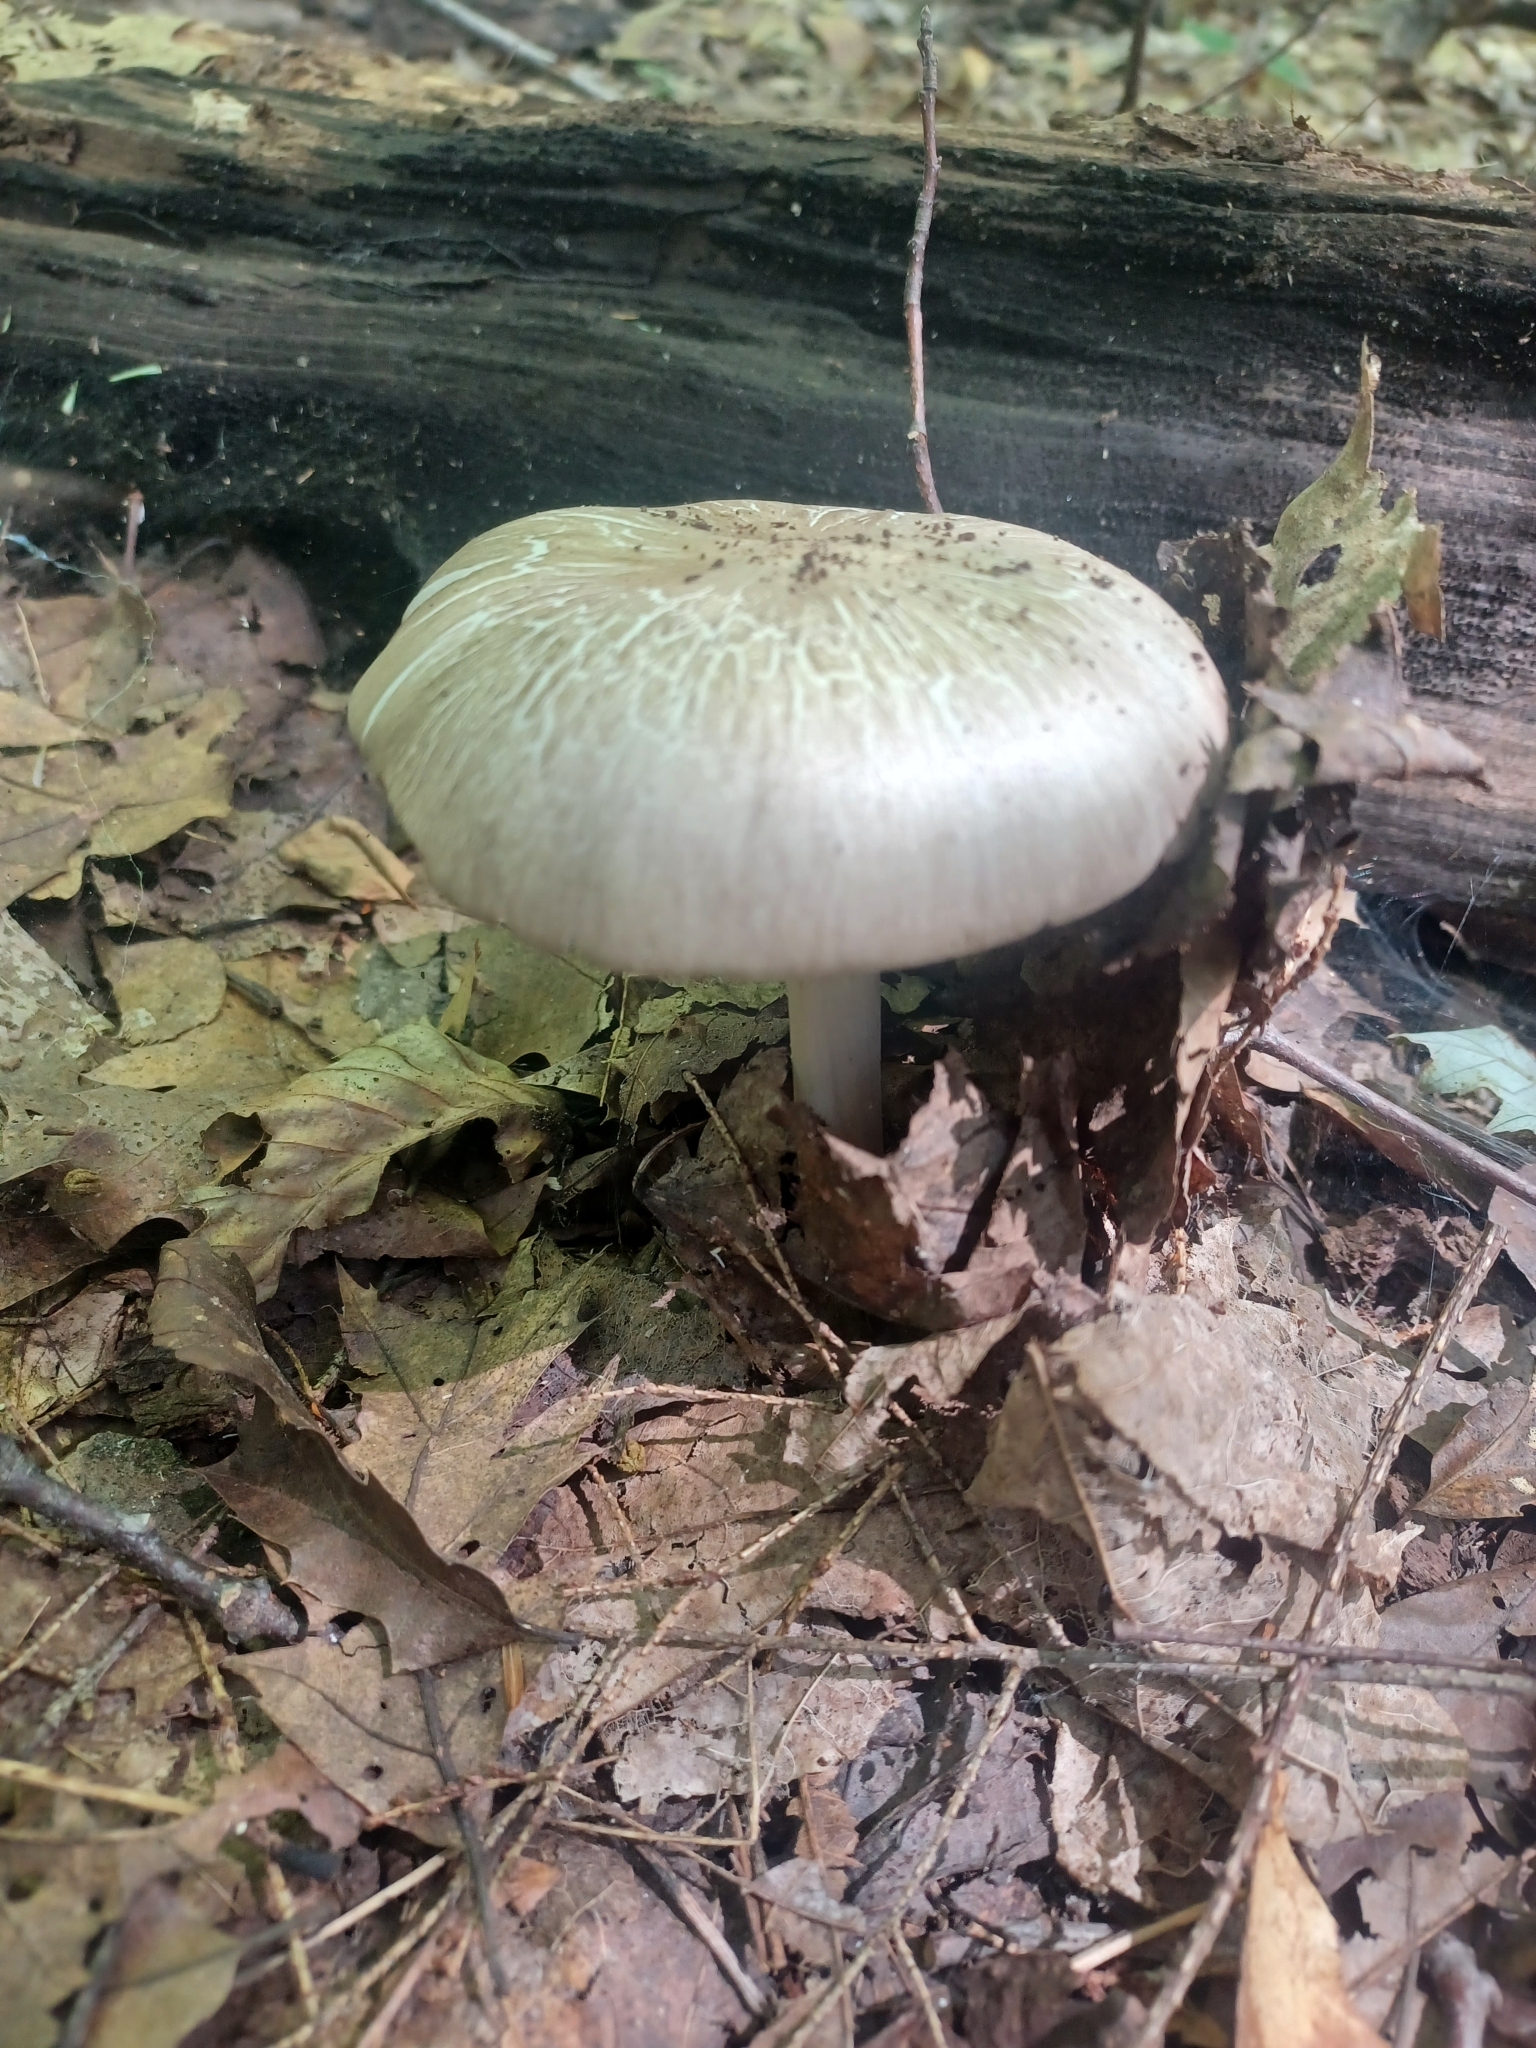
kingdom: Fungi
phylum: Basidiomycota
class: Agaricomycetes
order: Agaricales
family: Pluteaceae
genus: Pluteus
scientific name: Pluteus petasatus
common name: Scaly shield
